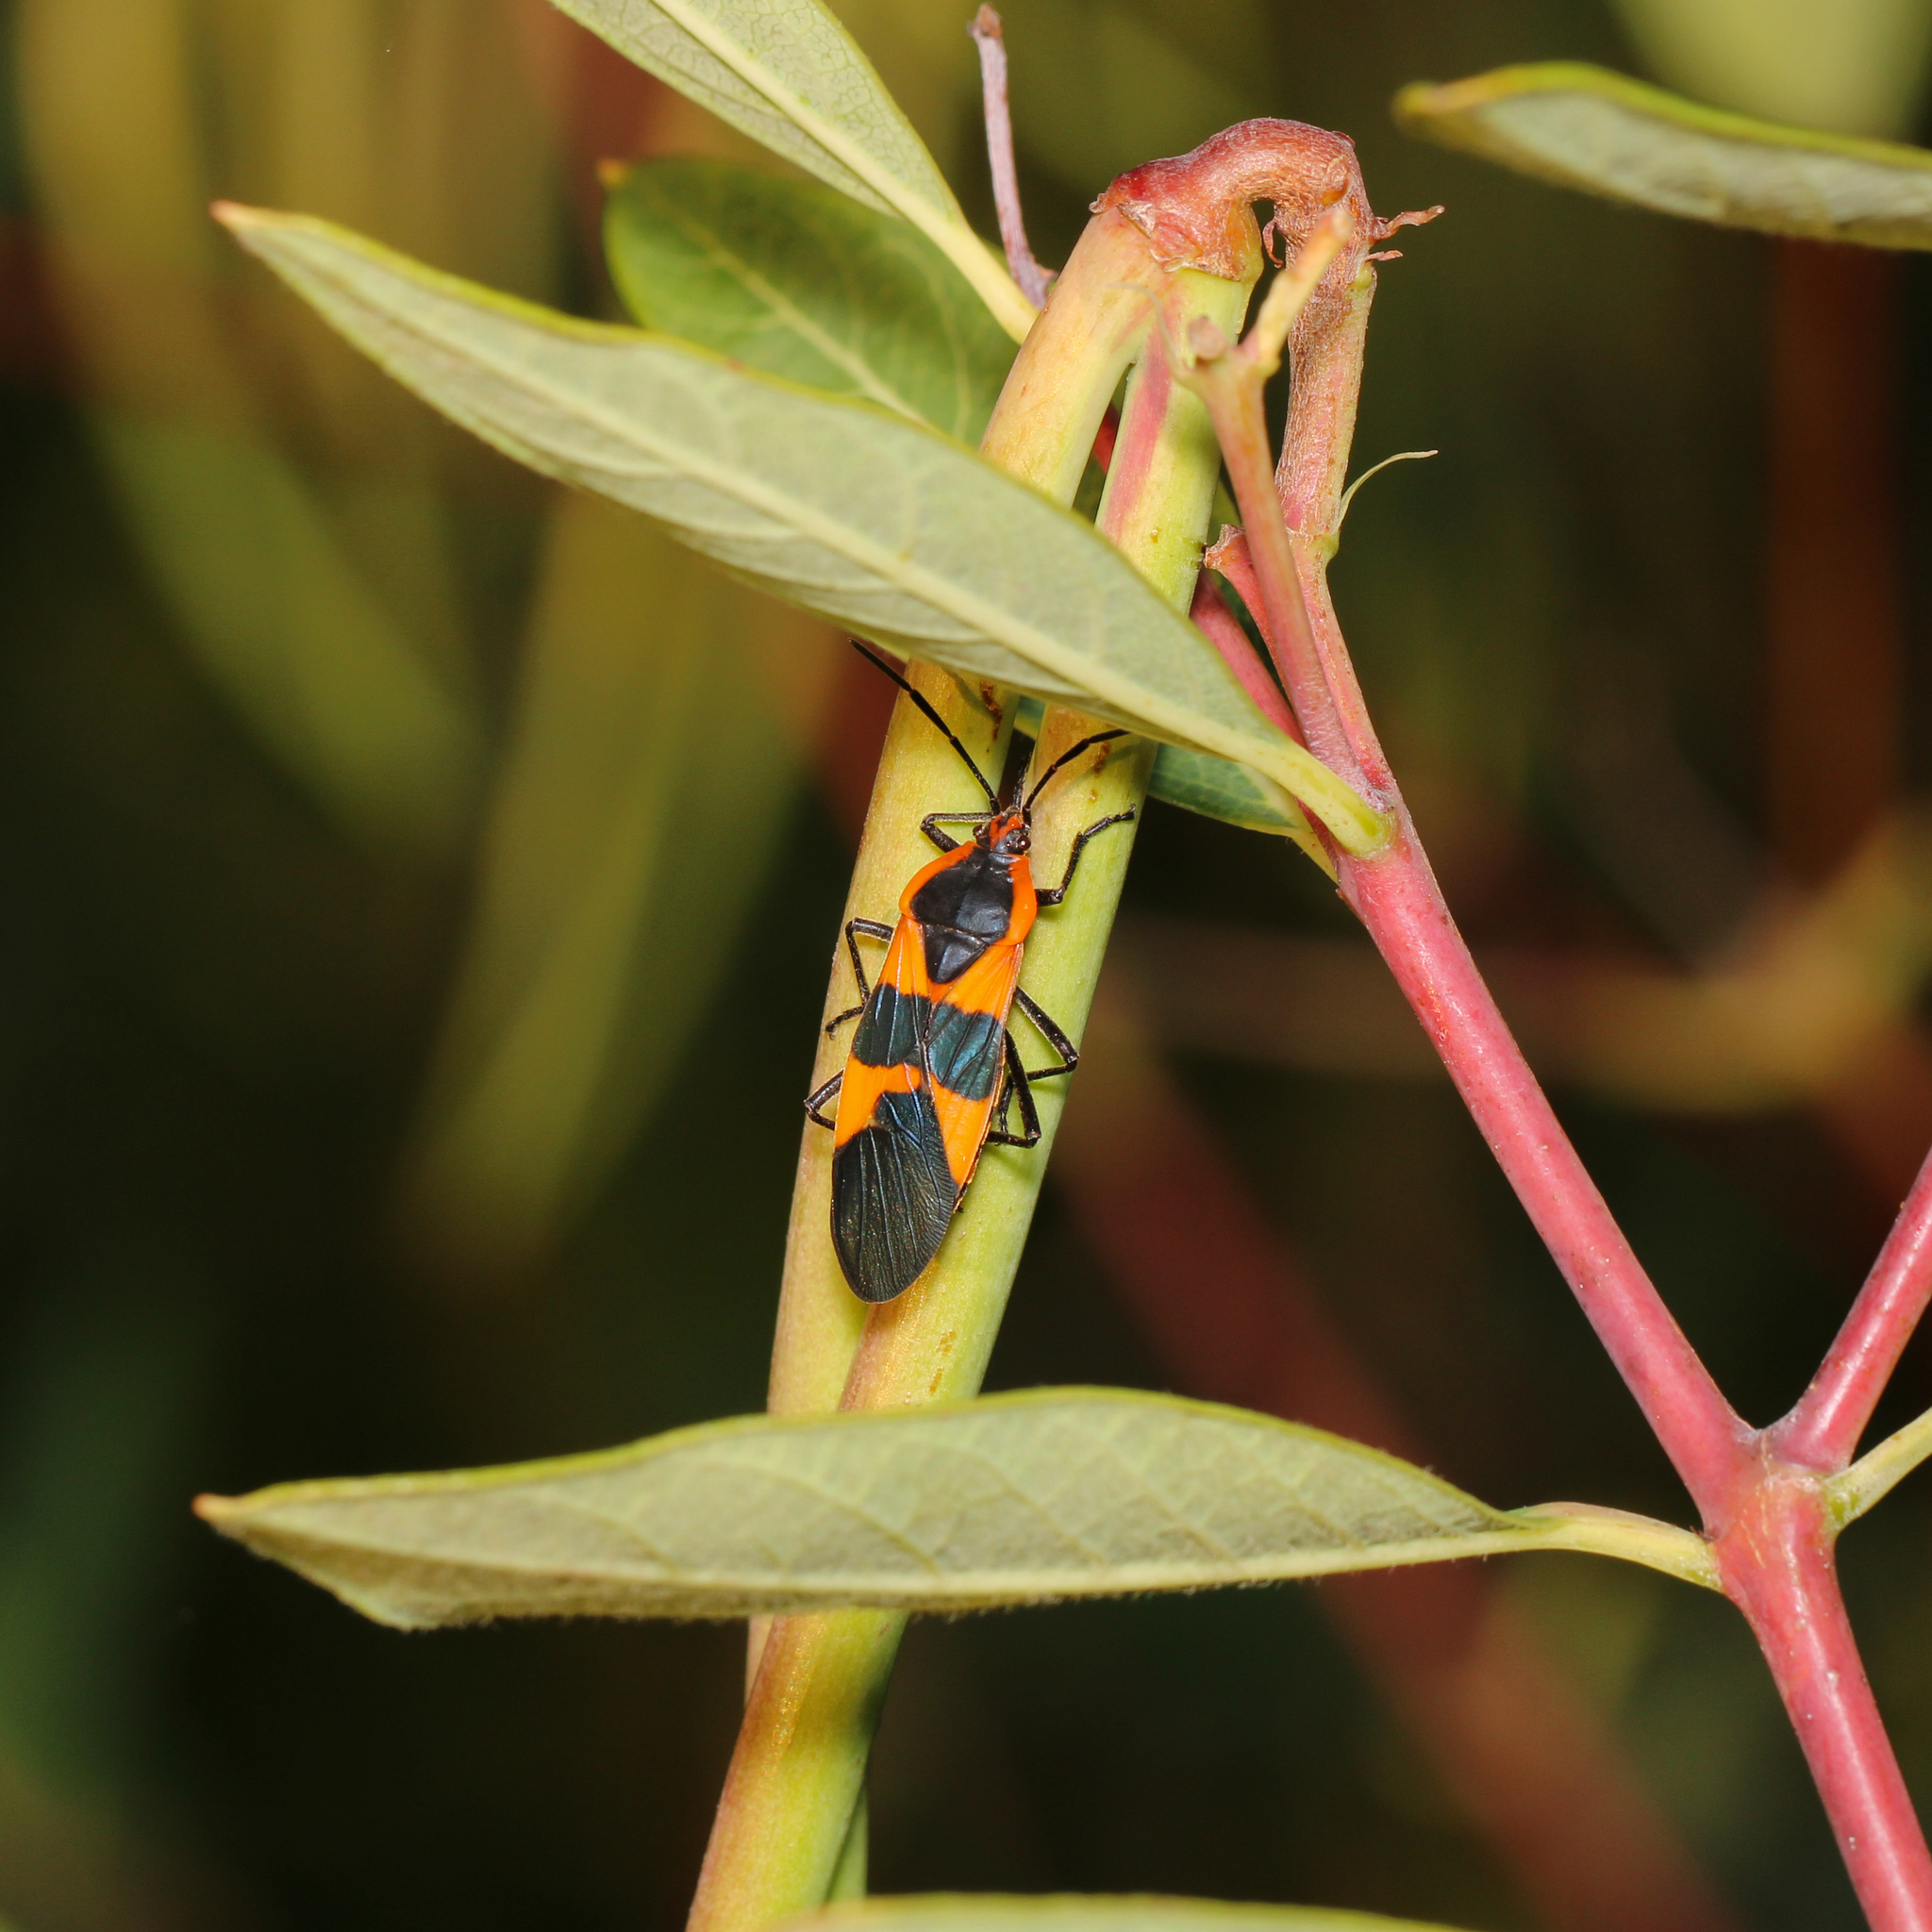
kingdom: Animalia
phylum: Arthropoda
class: Insecta
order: Hemiptera
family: Lygaeidae
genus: Oncopeltus
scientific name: Oncopeltus fasciatus
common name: Large milkweed bug
